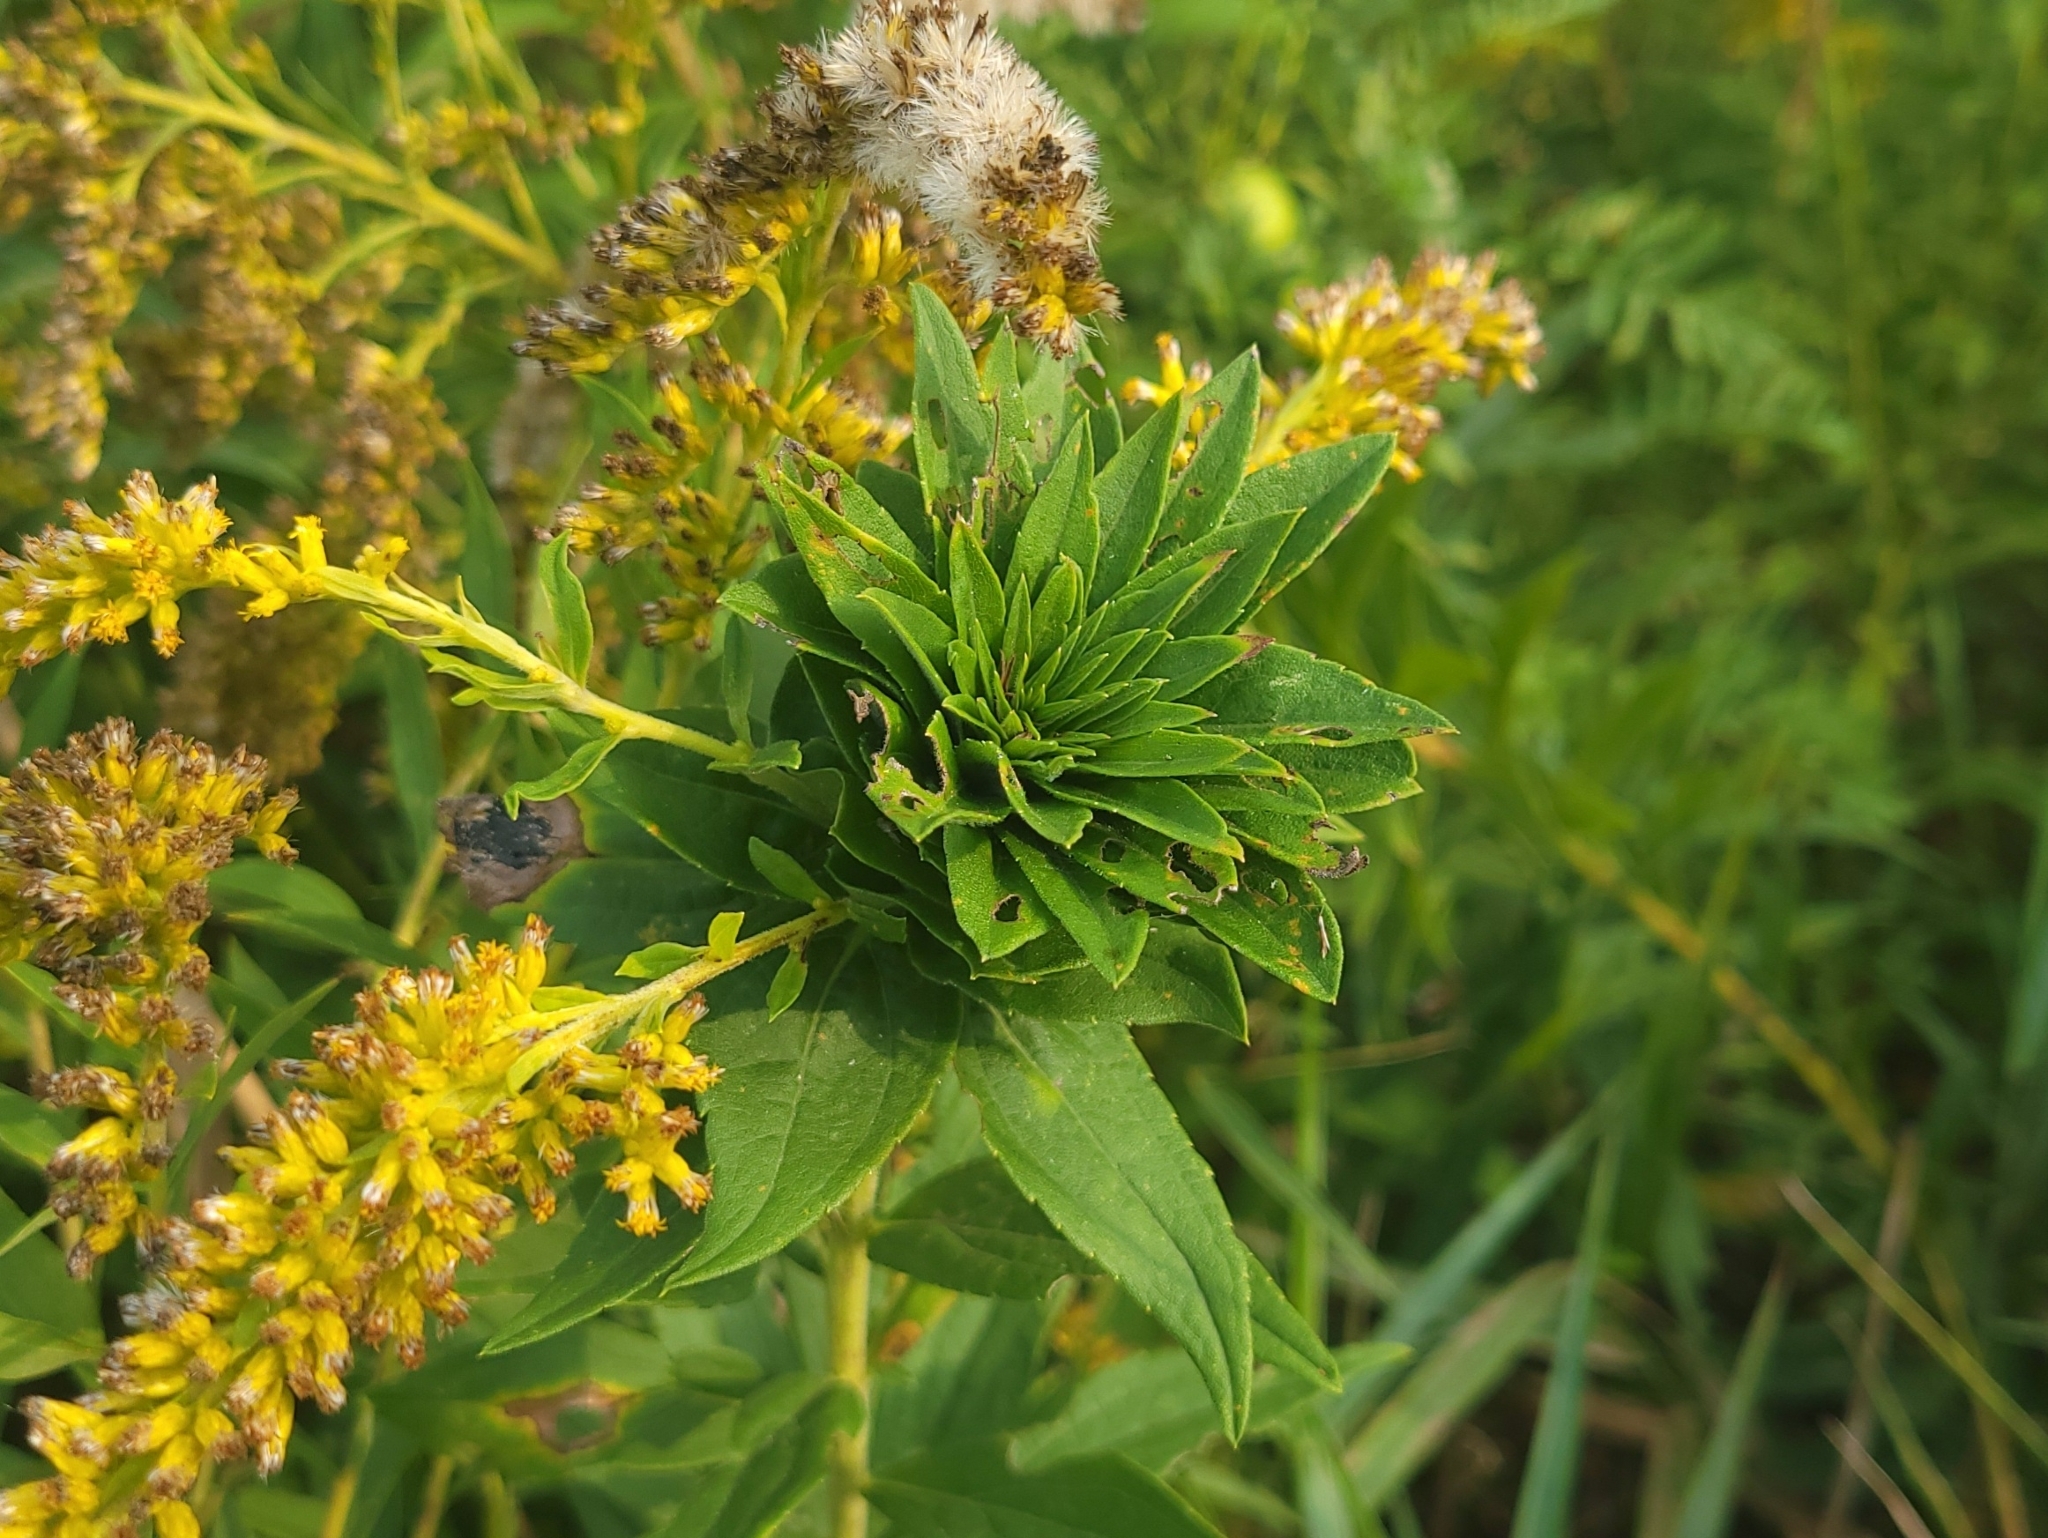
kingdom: Animalia
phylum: Arthropoda
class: Insecta
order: Diptera
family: Cecidomyiidae
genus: Rhopalomyia
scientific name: Rhopalomyia solidaginis
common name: Goldenrod bunch gall midge
